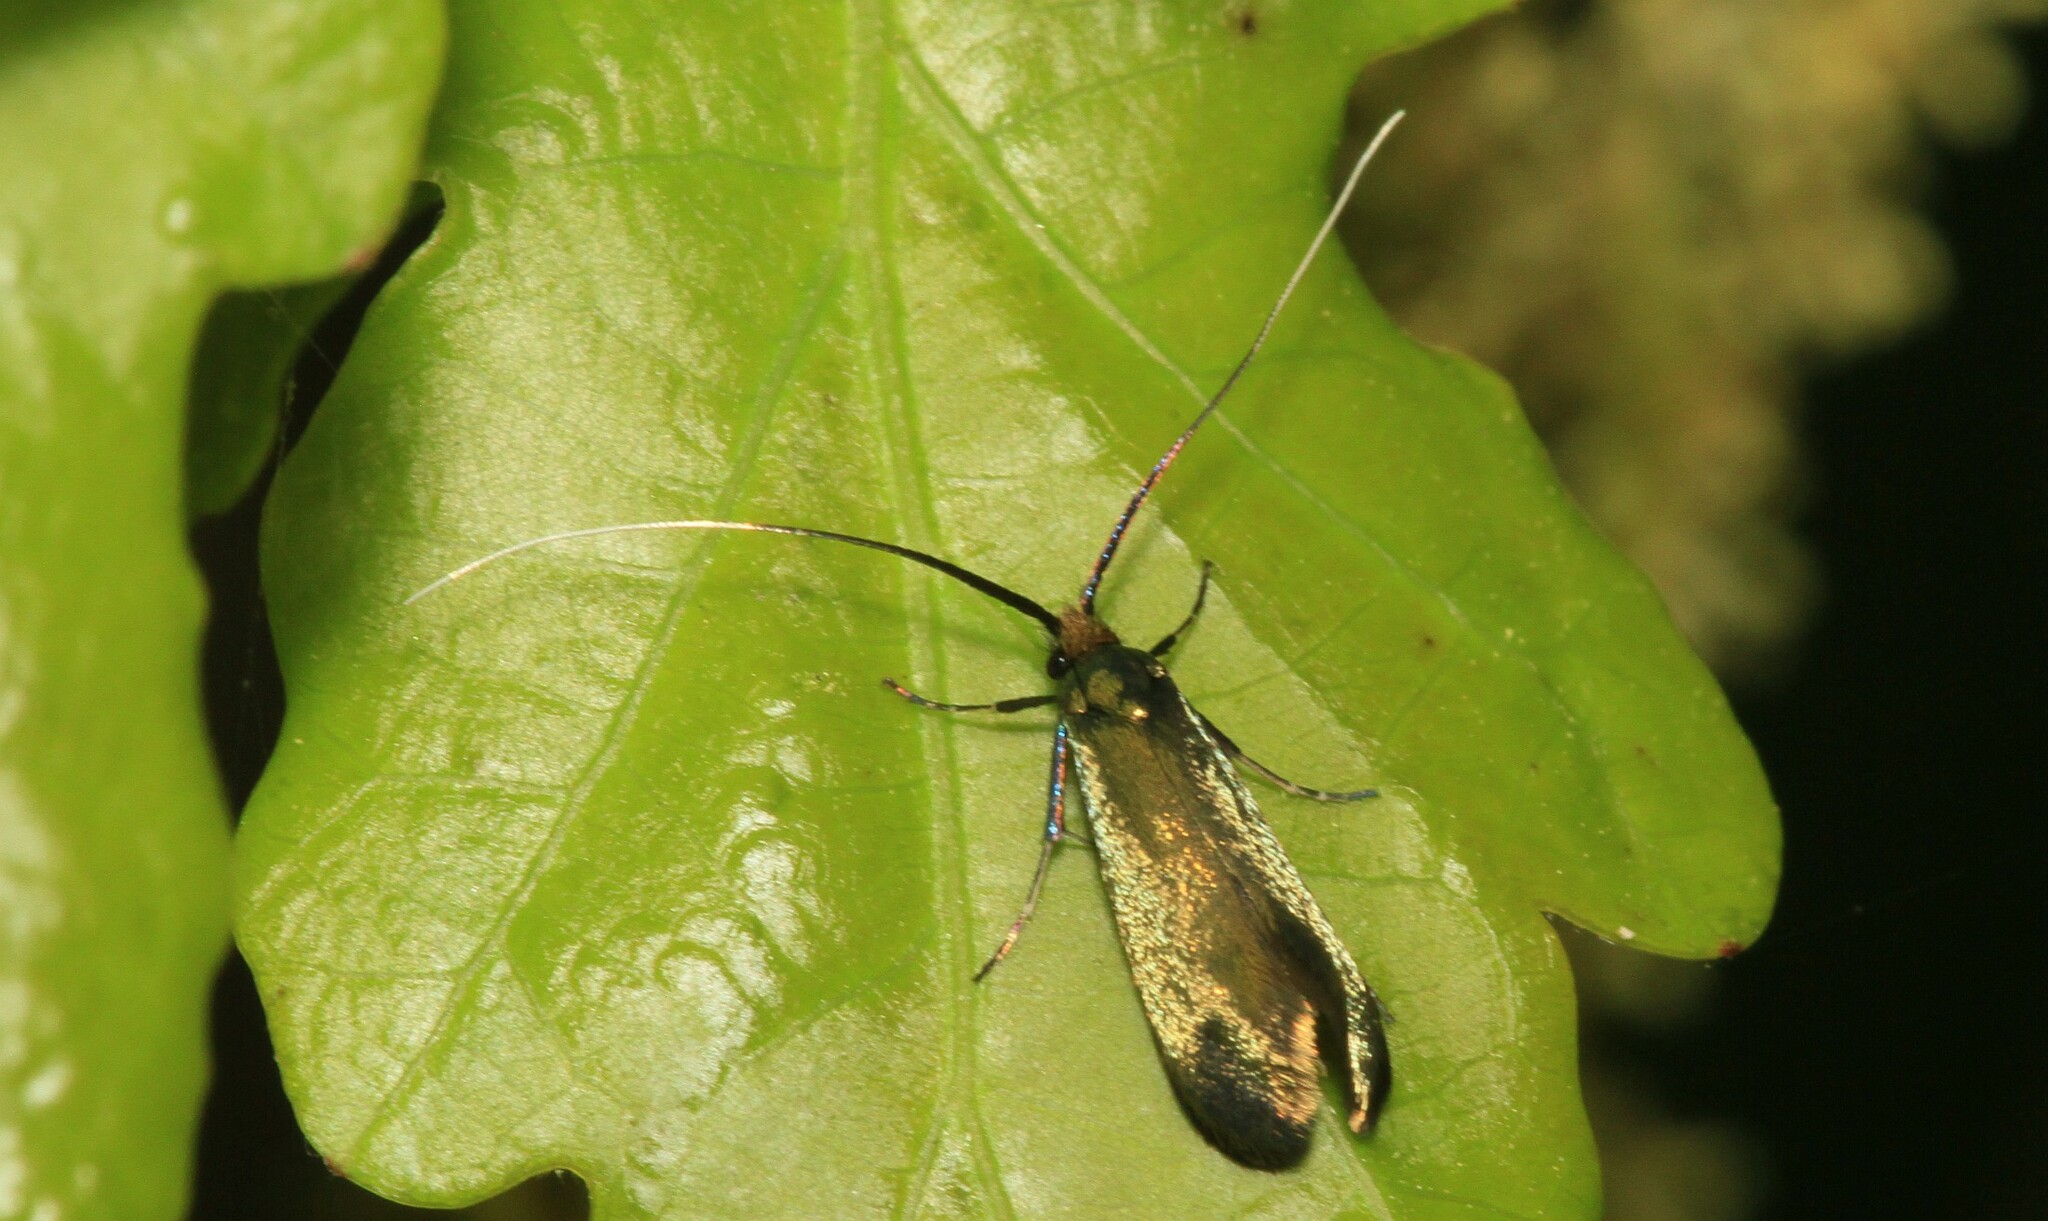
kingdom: Animalia
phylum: Arthropoda
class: Insecta
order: Lepidoptera
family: Adelidae
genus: Adela
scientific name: Adela viridella
